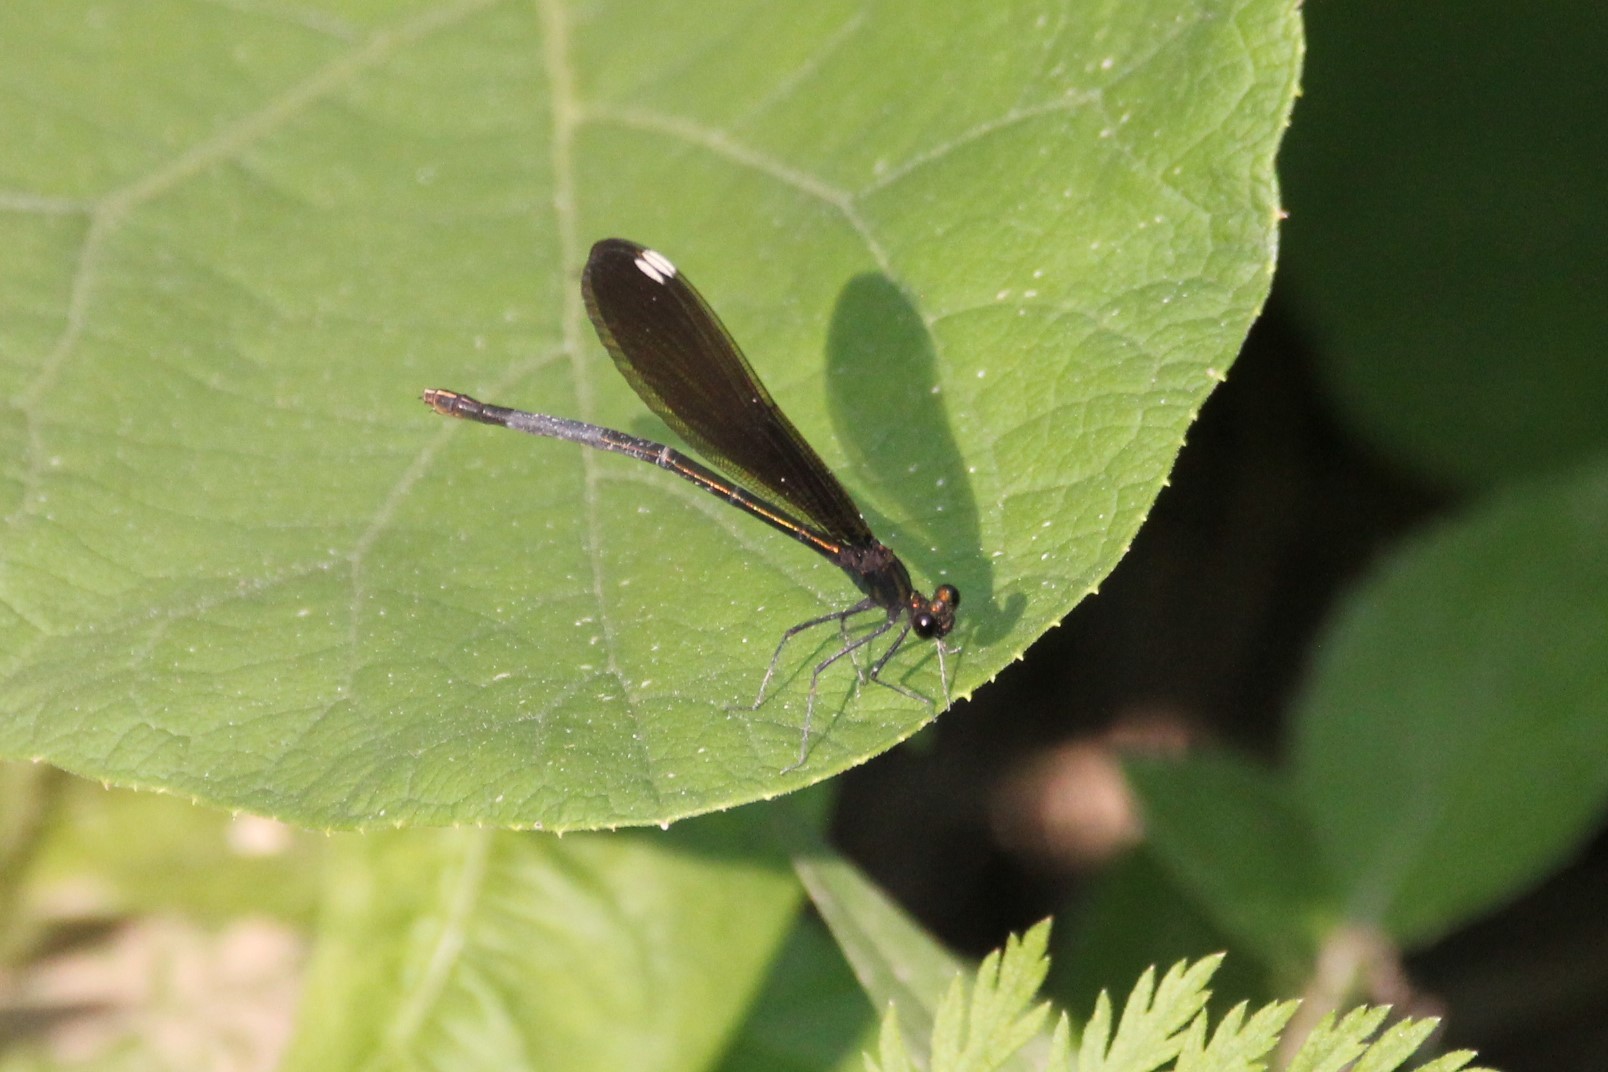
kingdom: Animalia
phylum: Arthropoda
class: Insecta
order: Odonata
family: Calopterygidae
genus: Calopteryx
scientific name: Calopteryx maculata
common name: Ebony jewelwing
